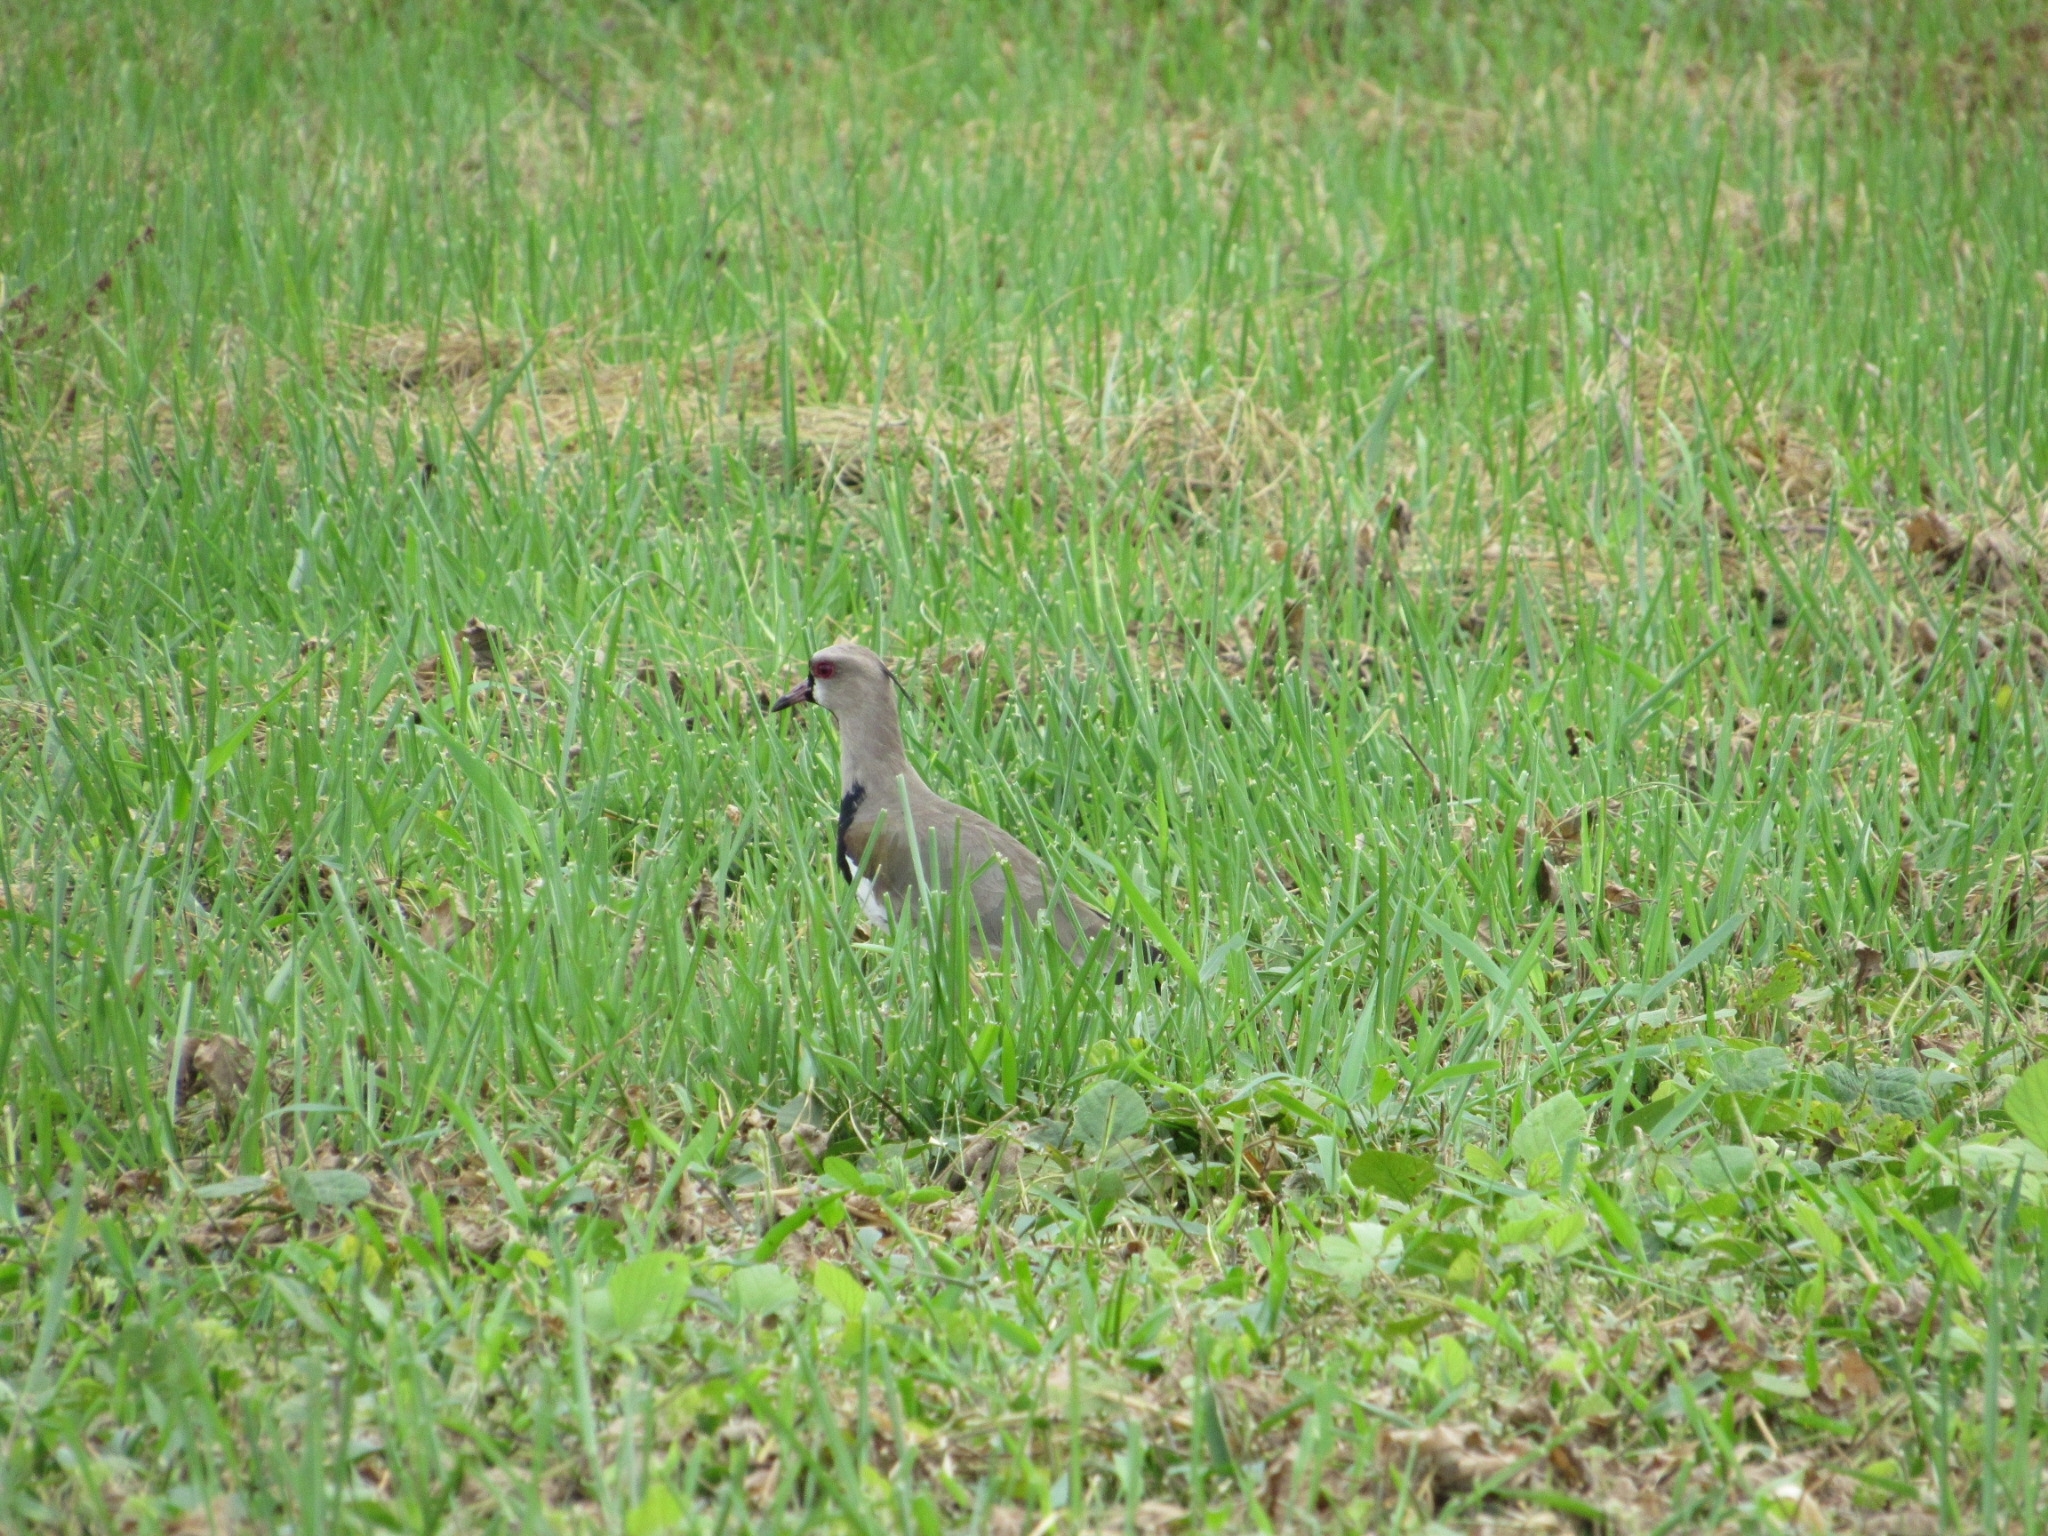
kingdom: Animalia
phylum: Chordata
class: Aves
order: Charadriiformes
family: Charadriidae
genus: Vanellus
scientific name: Vanellus chilensis
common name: Southern lapwing
